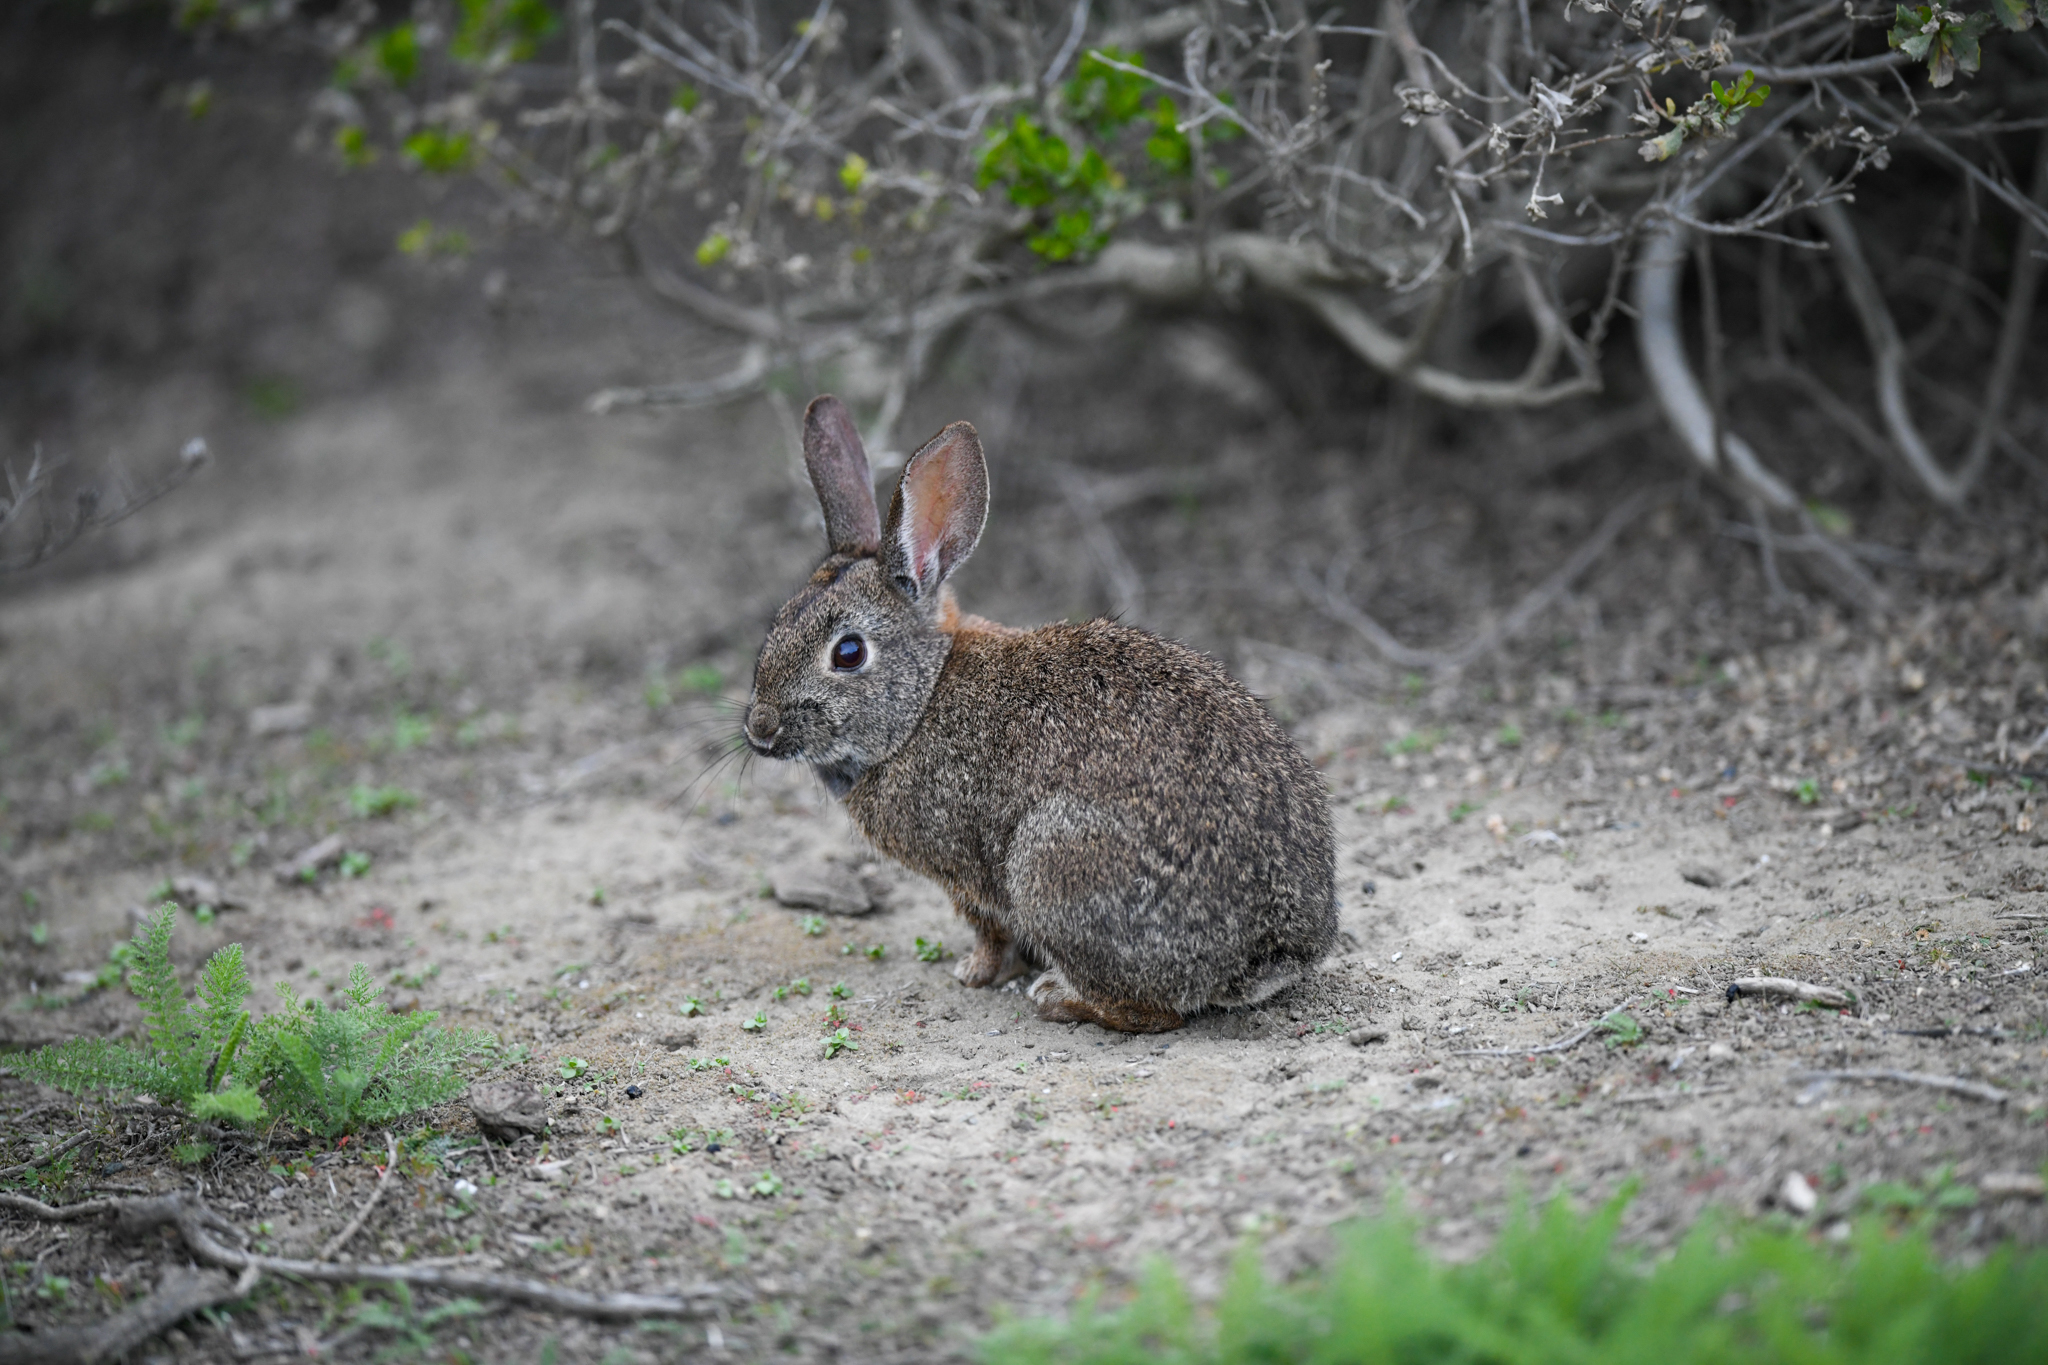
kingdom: Animalia
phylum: Chordata
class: Mammalia
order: Lagomorpha
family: Leporidae
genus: Sylvilagus
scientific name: Sylvilagus bachmani
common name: Brush rabbit
